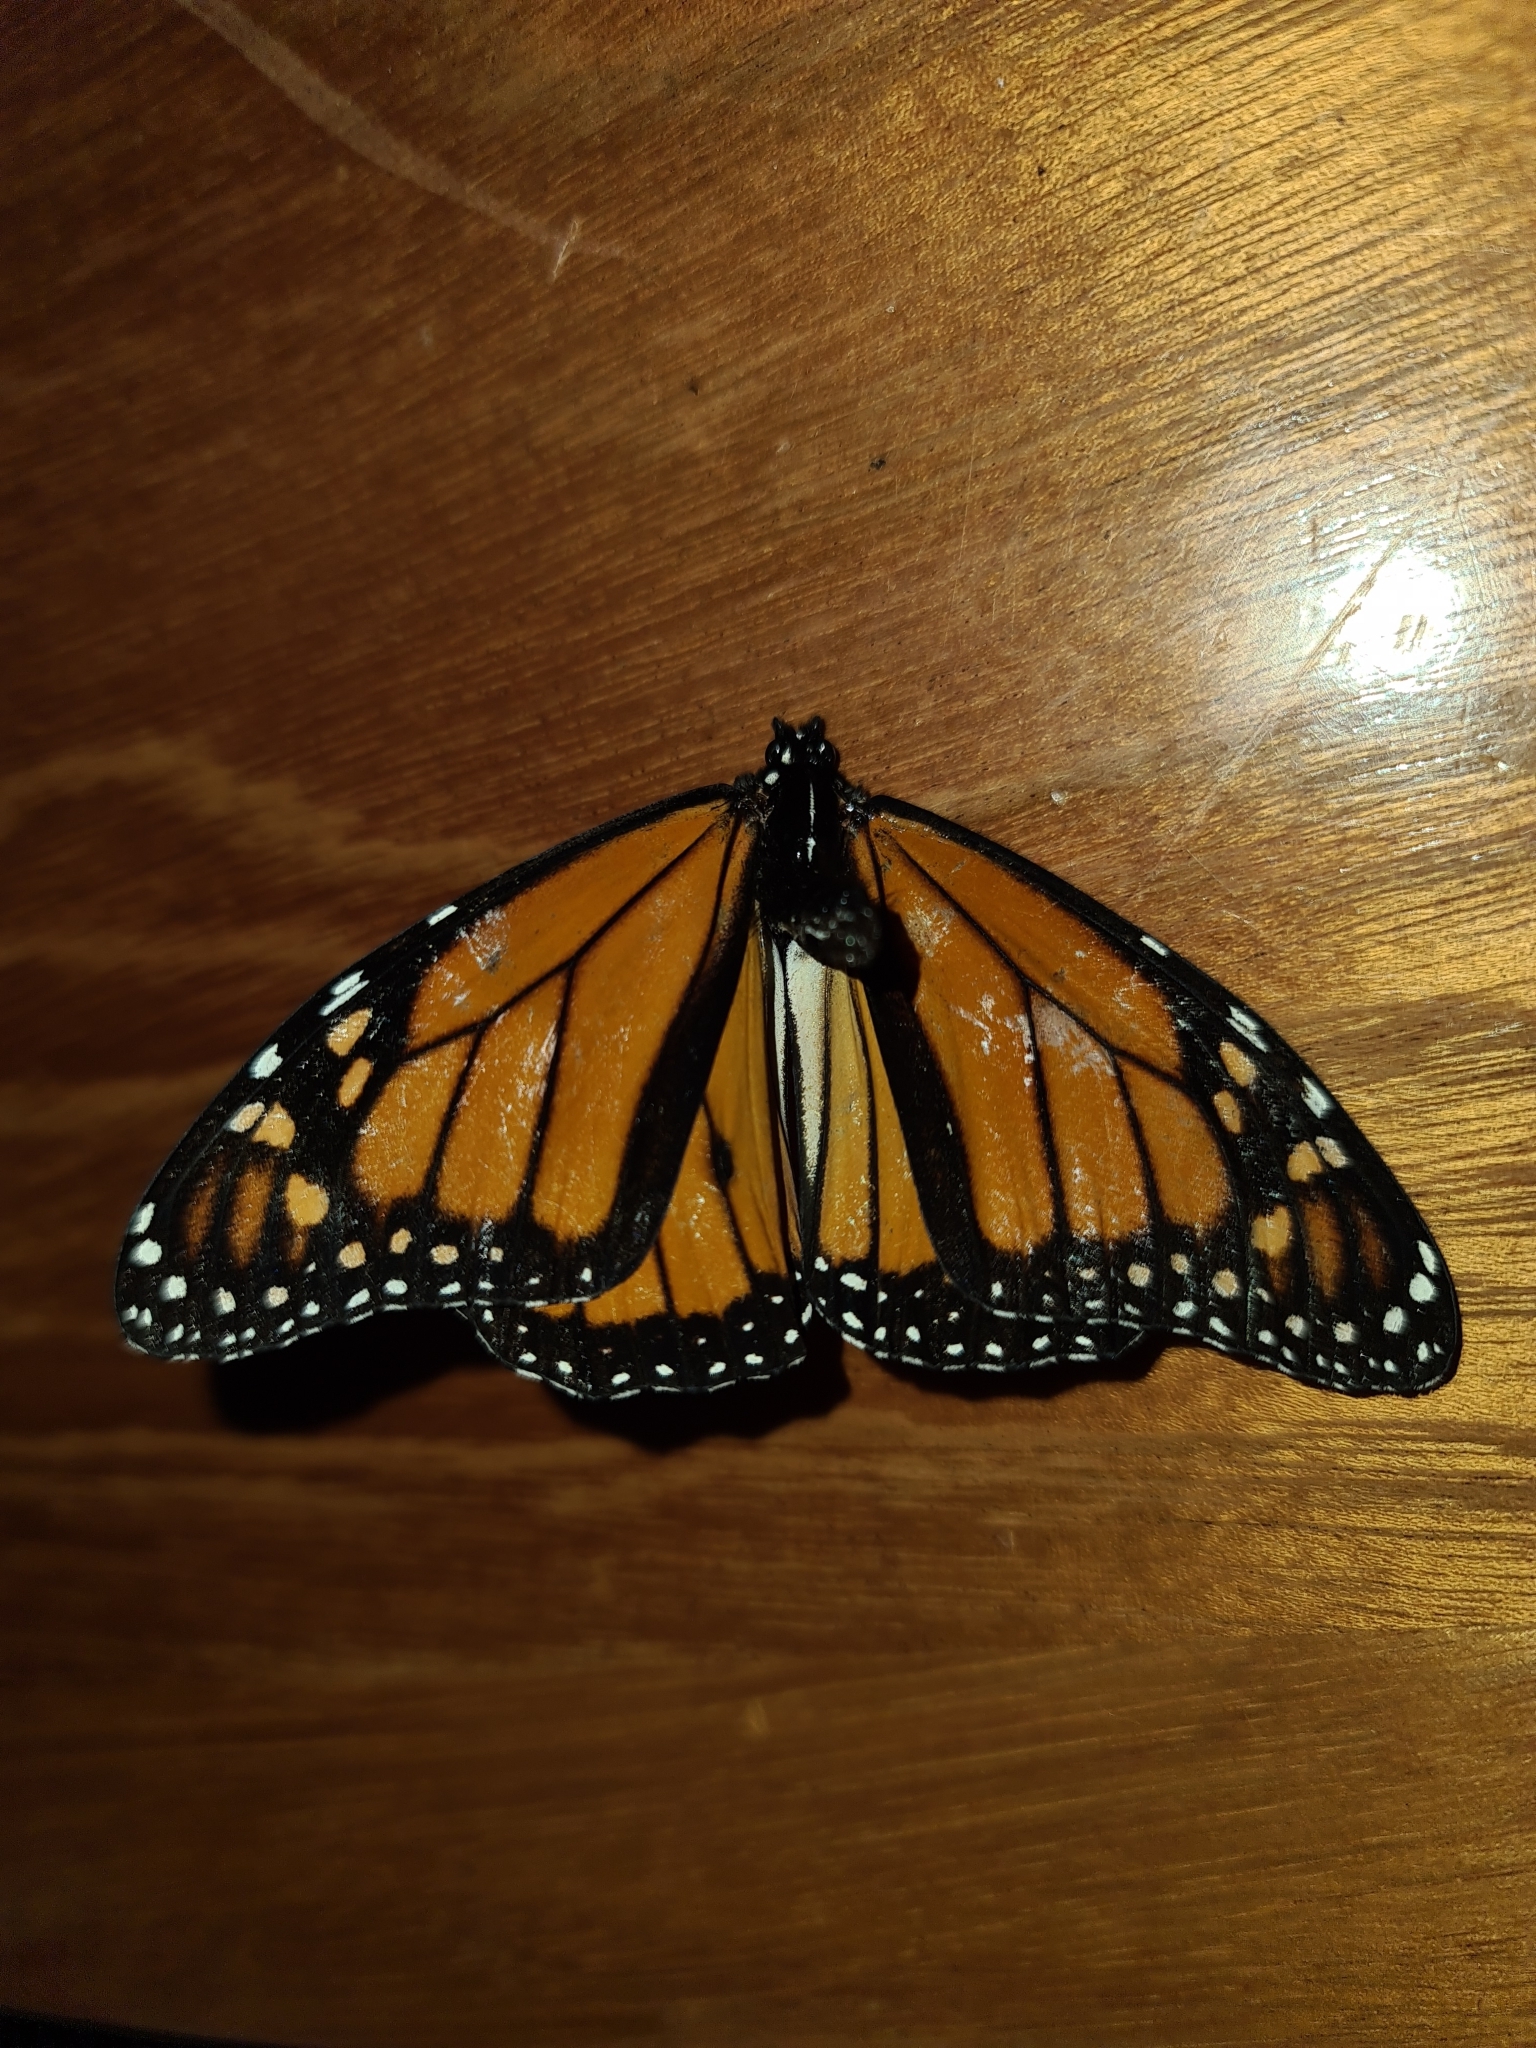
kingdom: Animalia
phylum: Arthropoda
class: Insecta
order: Lepidoptera
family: Nymphalidae
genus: Danaus
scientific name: Danaus plexippus
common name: Monarch
